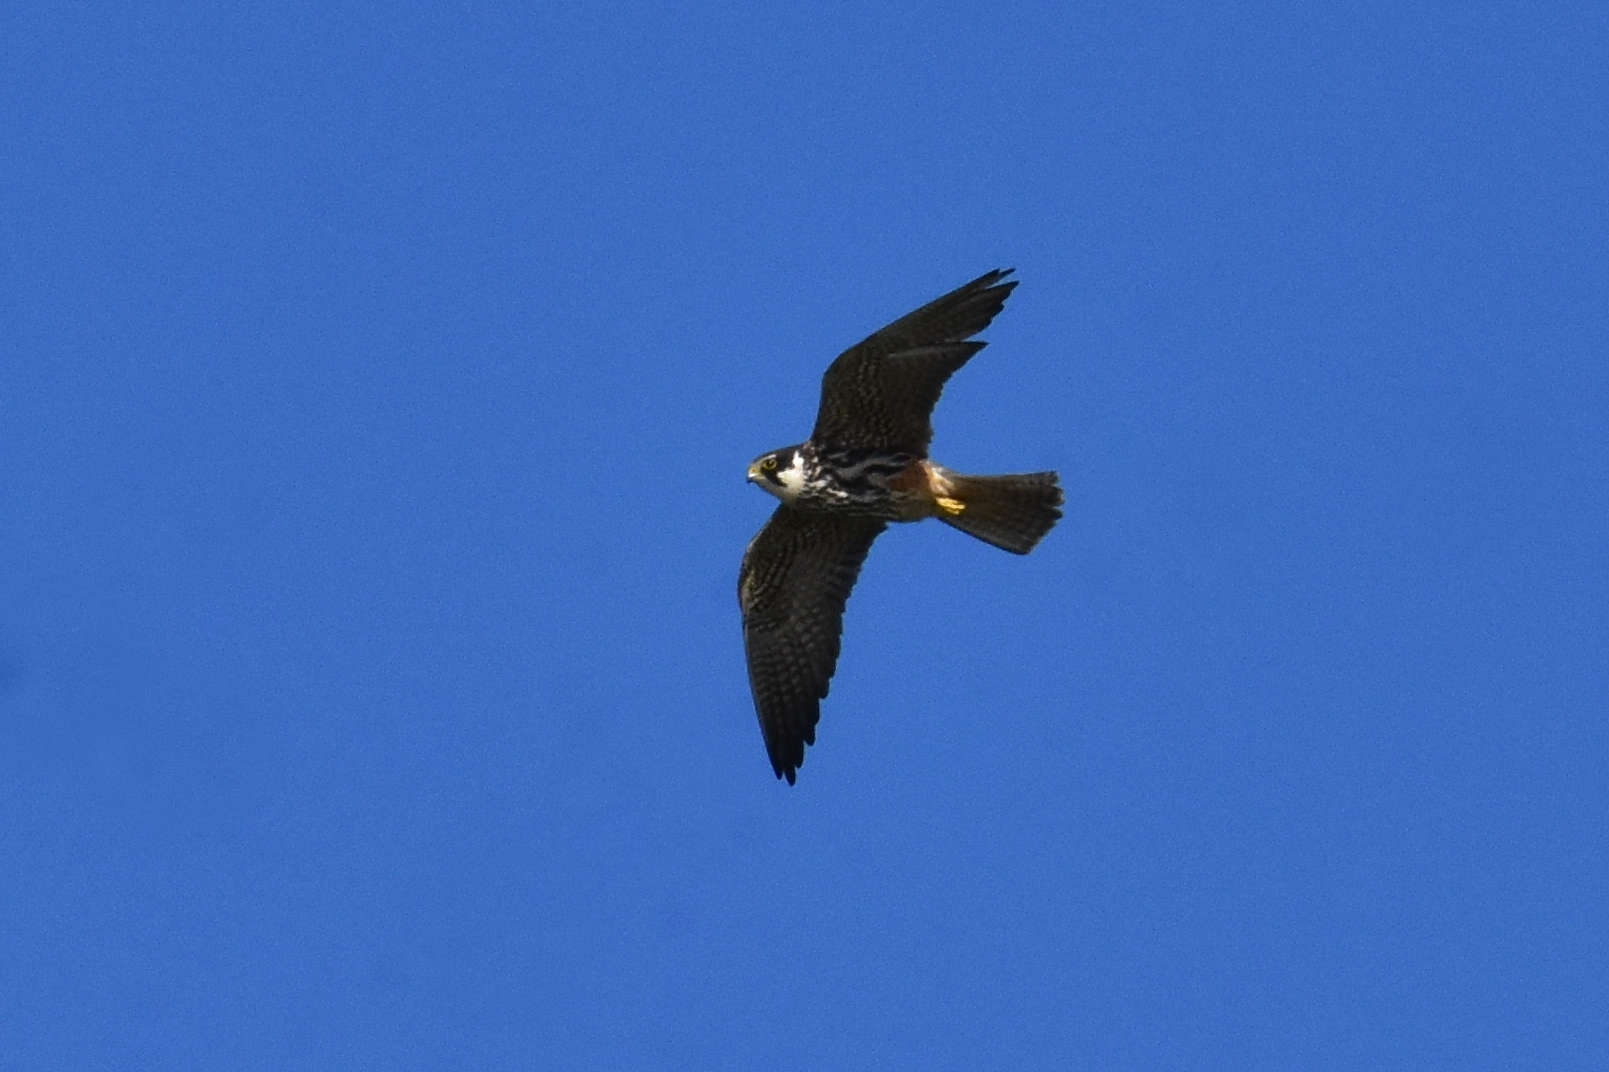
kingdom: Animalia
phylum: Chordata
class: Aves
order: Falconiformes
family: Falconidae
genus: Falco
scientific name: Falco subbuteo
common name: Eurasian hobby
